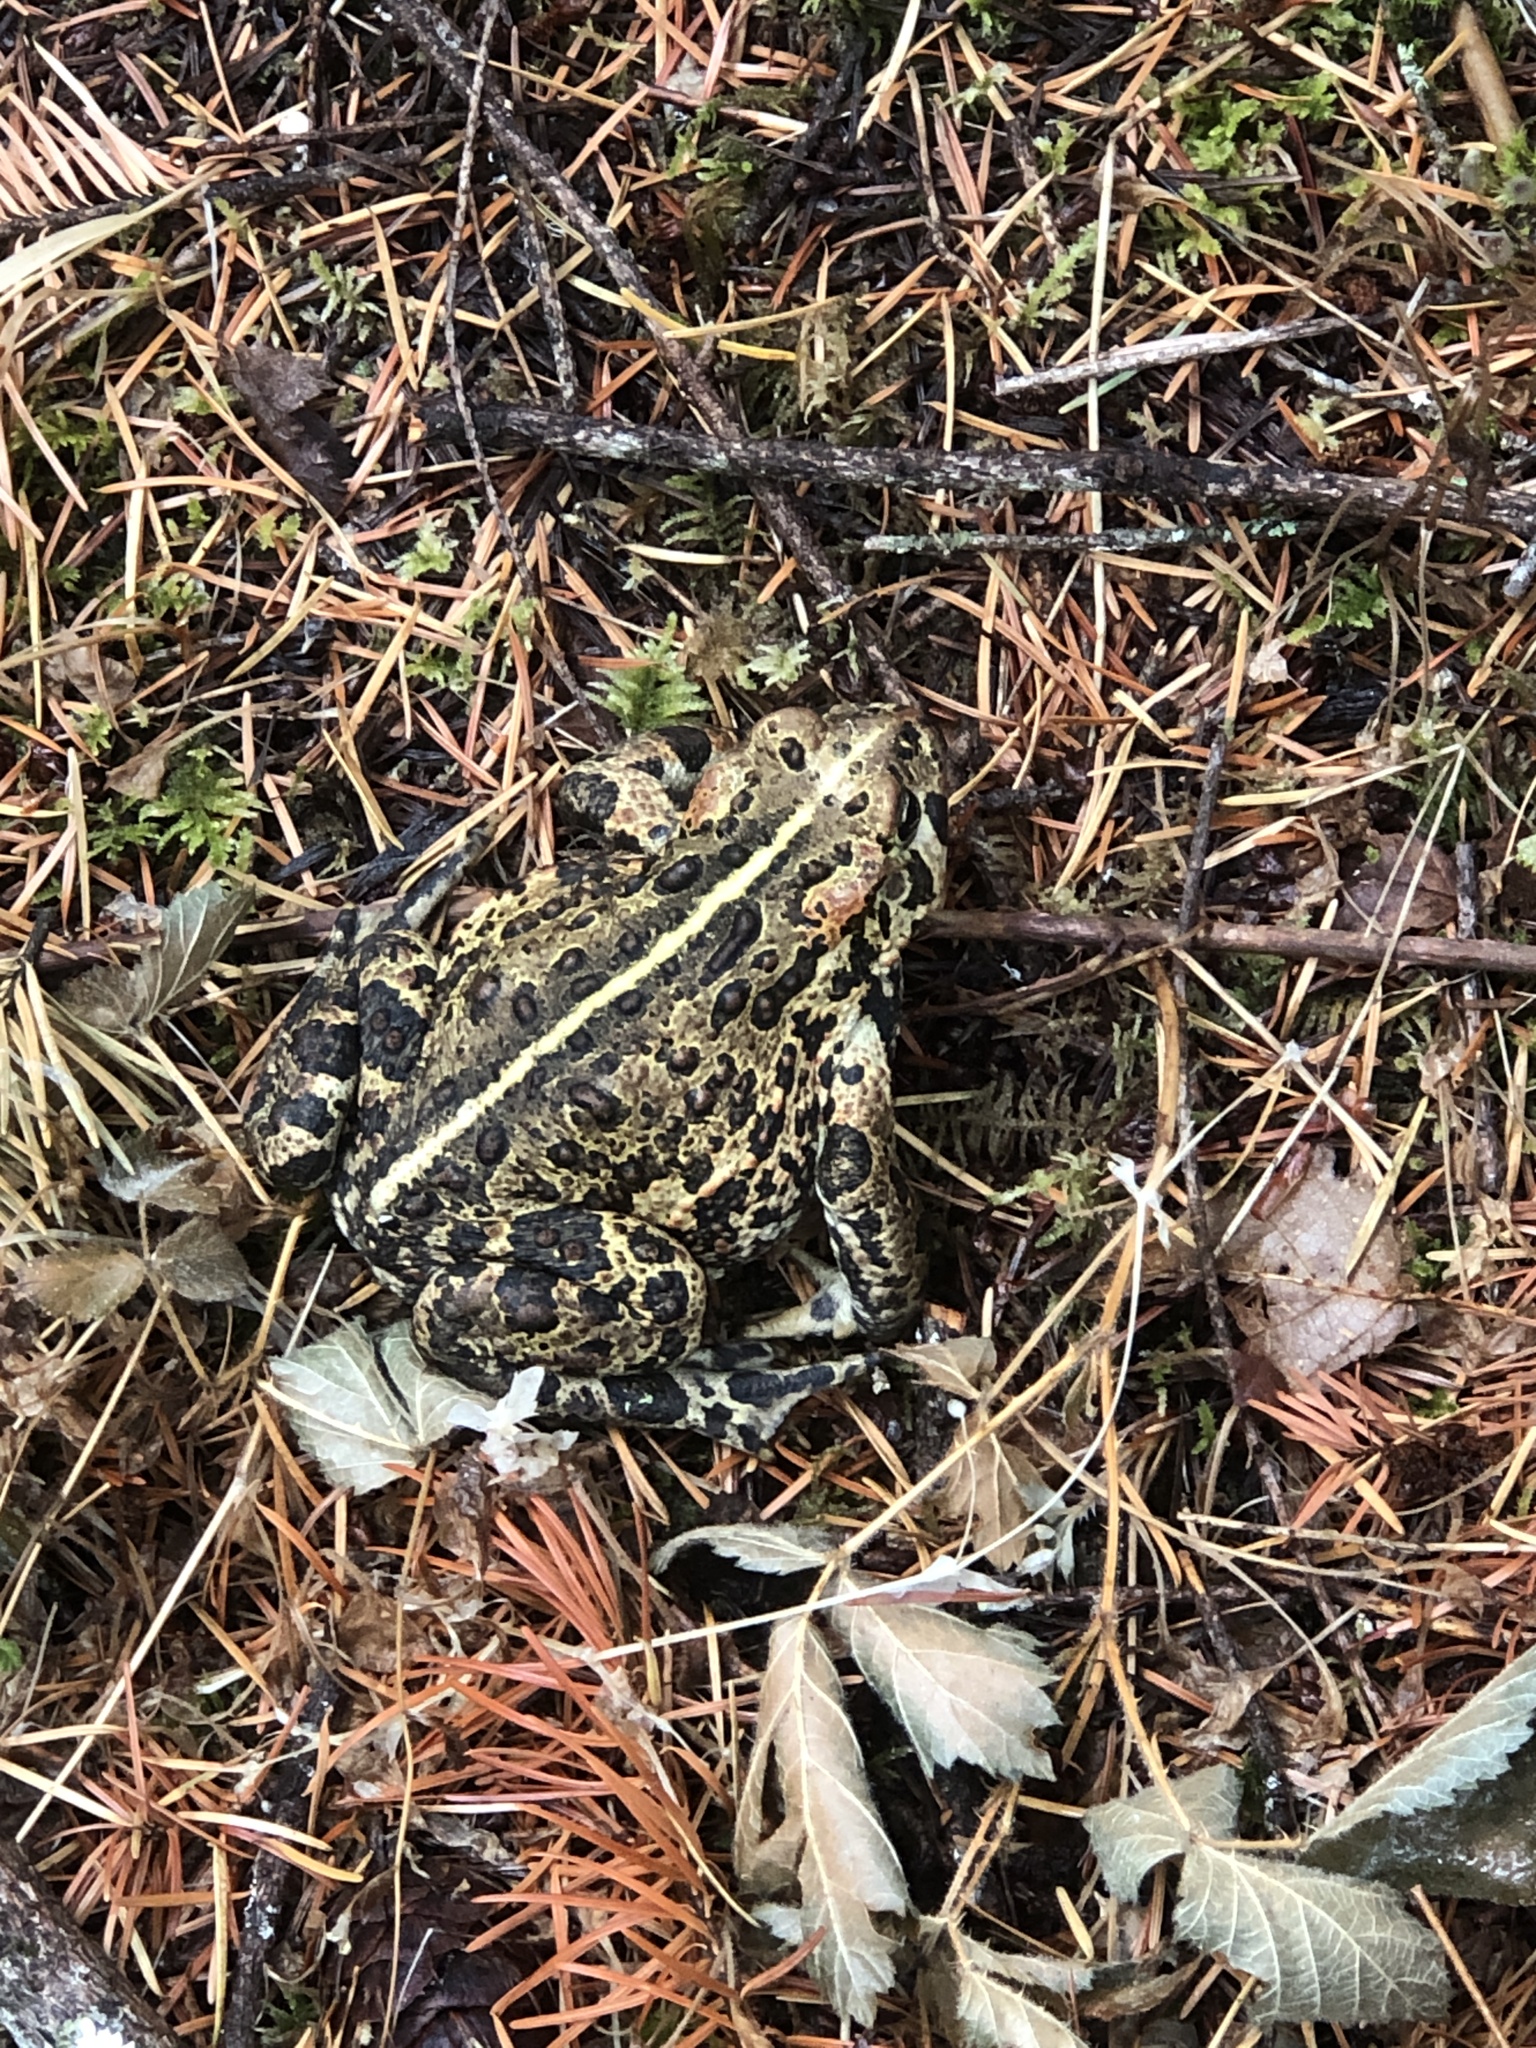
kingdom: Animalia
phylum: Chordata
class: Amphibia
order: Anura
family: Bufonidae
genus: Anaxyrus
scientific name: Anaxyrus boreas
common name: Western toad
